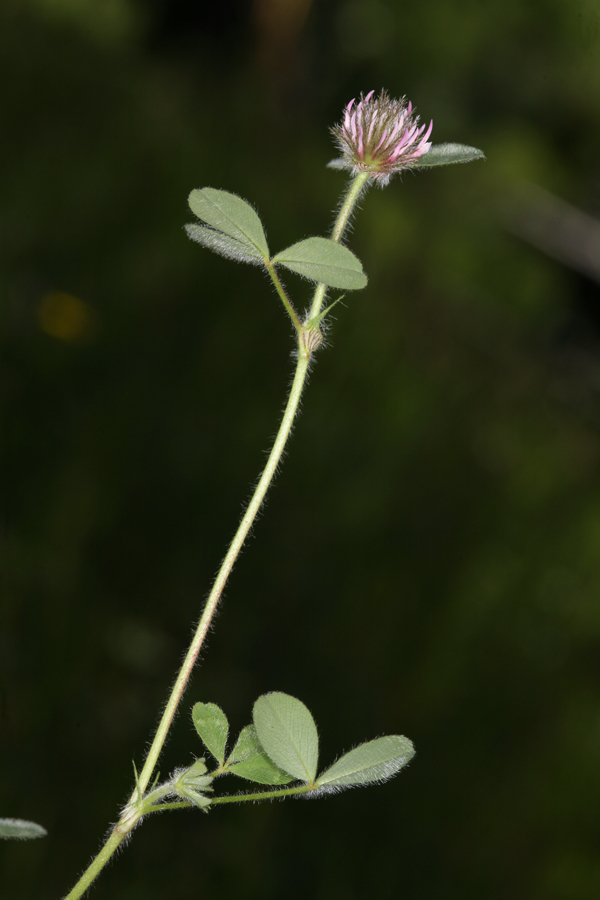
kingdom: Plantae
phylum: Tracheophyta
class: Magnoliopsida
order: Fabales
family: Fabaceae
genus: Trifolium
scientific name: Trifolium hirtum
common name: Rose clover
